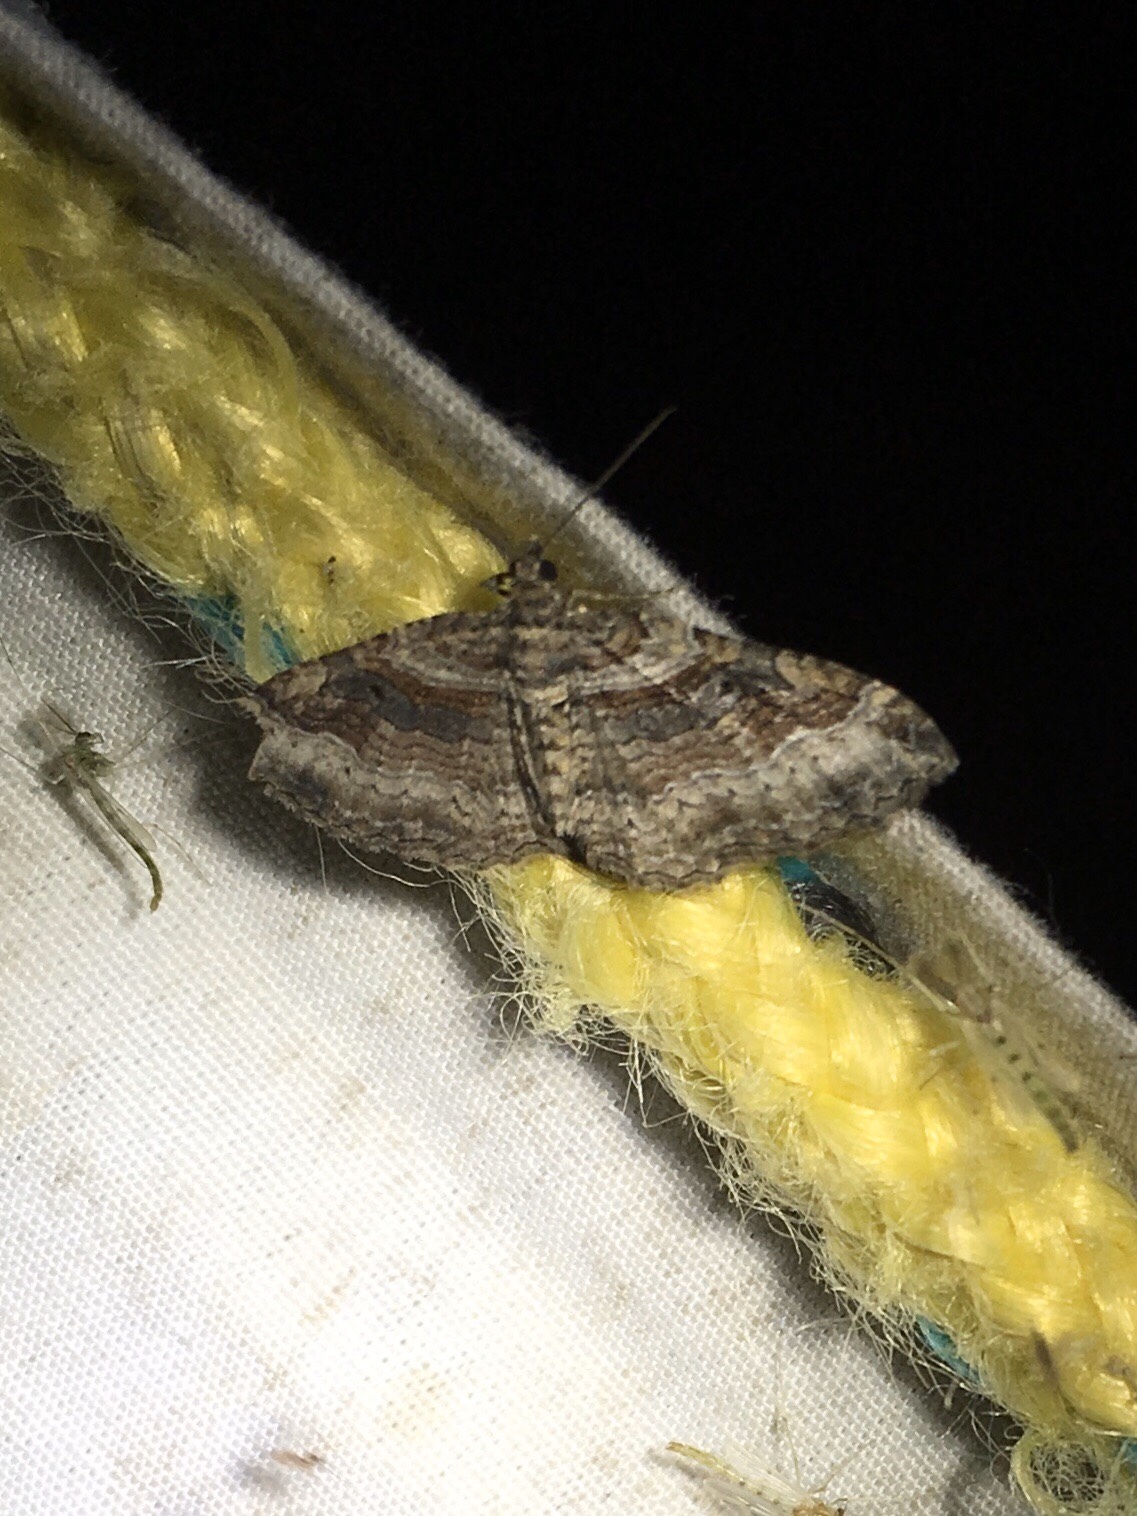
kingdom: Animalia
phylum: Arthropoda
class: Insecta
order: Lepidoptera
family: Geometridae
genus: Costaconvexa
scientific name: Costaconvexa centrostrigaria
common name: Bent-line carpet
